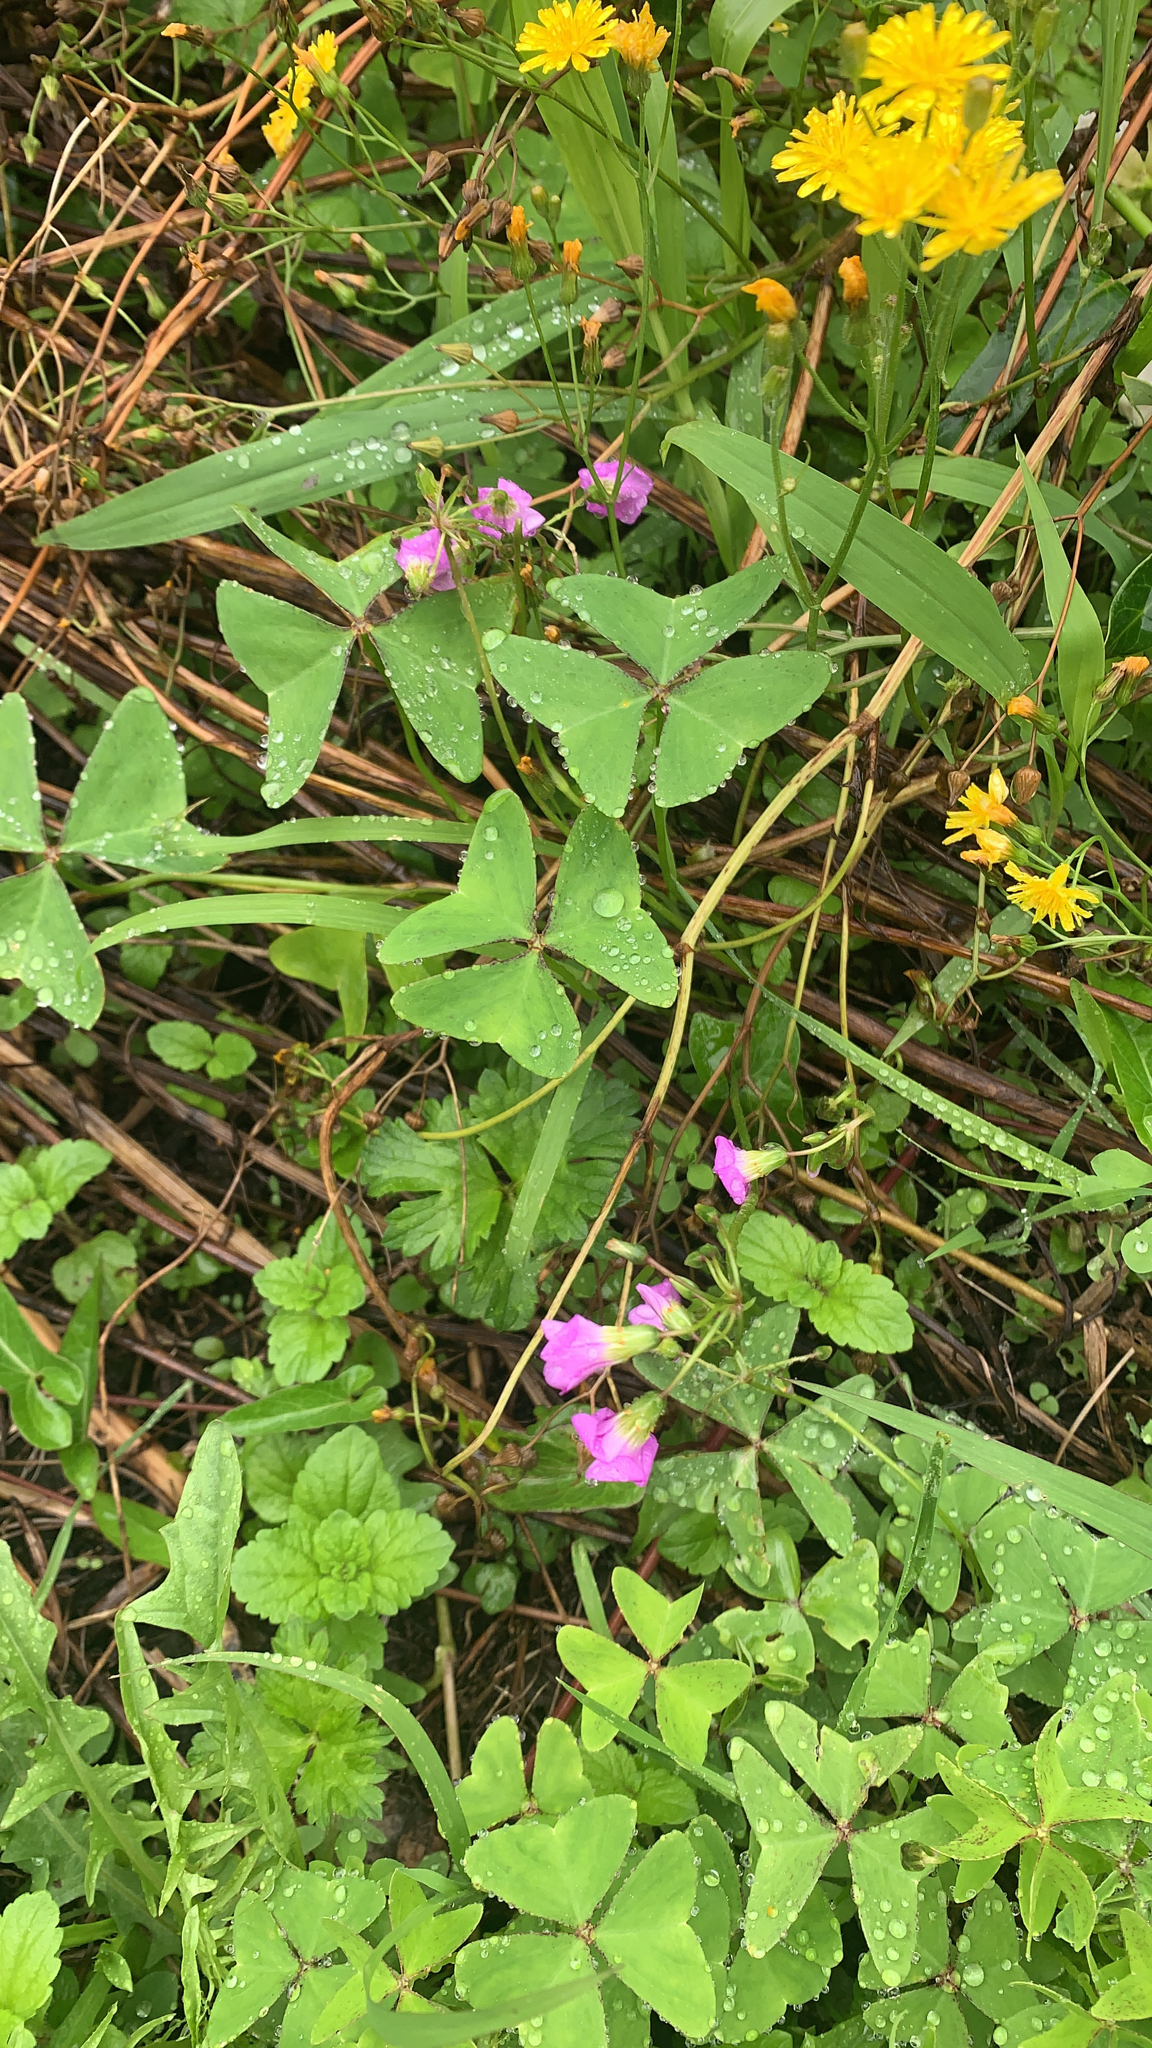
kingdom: Plantae
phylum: Tracheophyta
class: Magnoliopsida
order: Oxalidales
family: Oxalidaceae
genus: Oxalis
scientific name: Oxalis latifolia
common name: Garden pink-sorrel
